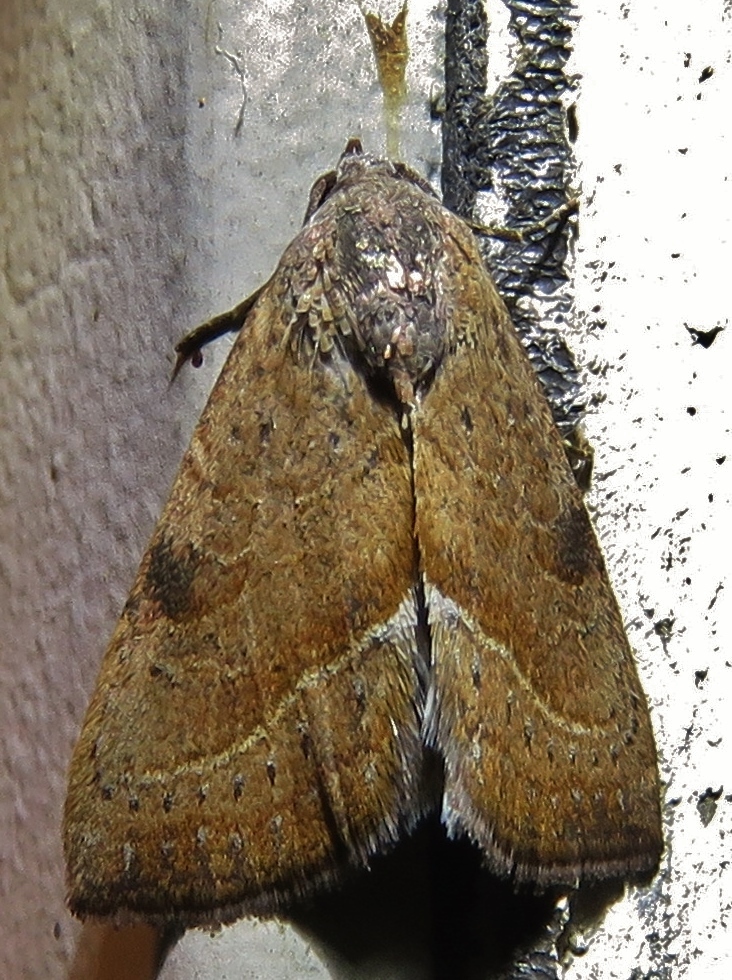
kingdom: Animalia
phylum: Arthropoda
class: Insecta
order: Lepidoptera
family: Noctuidae
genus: Galgula
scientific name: Galgula partita
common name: Wedgeling
